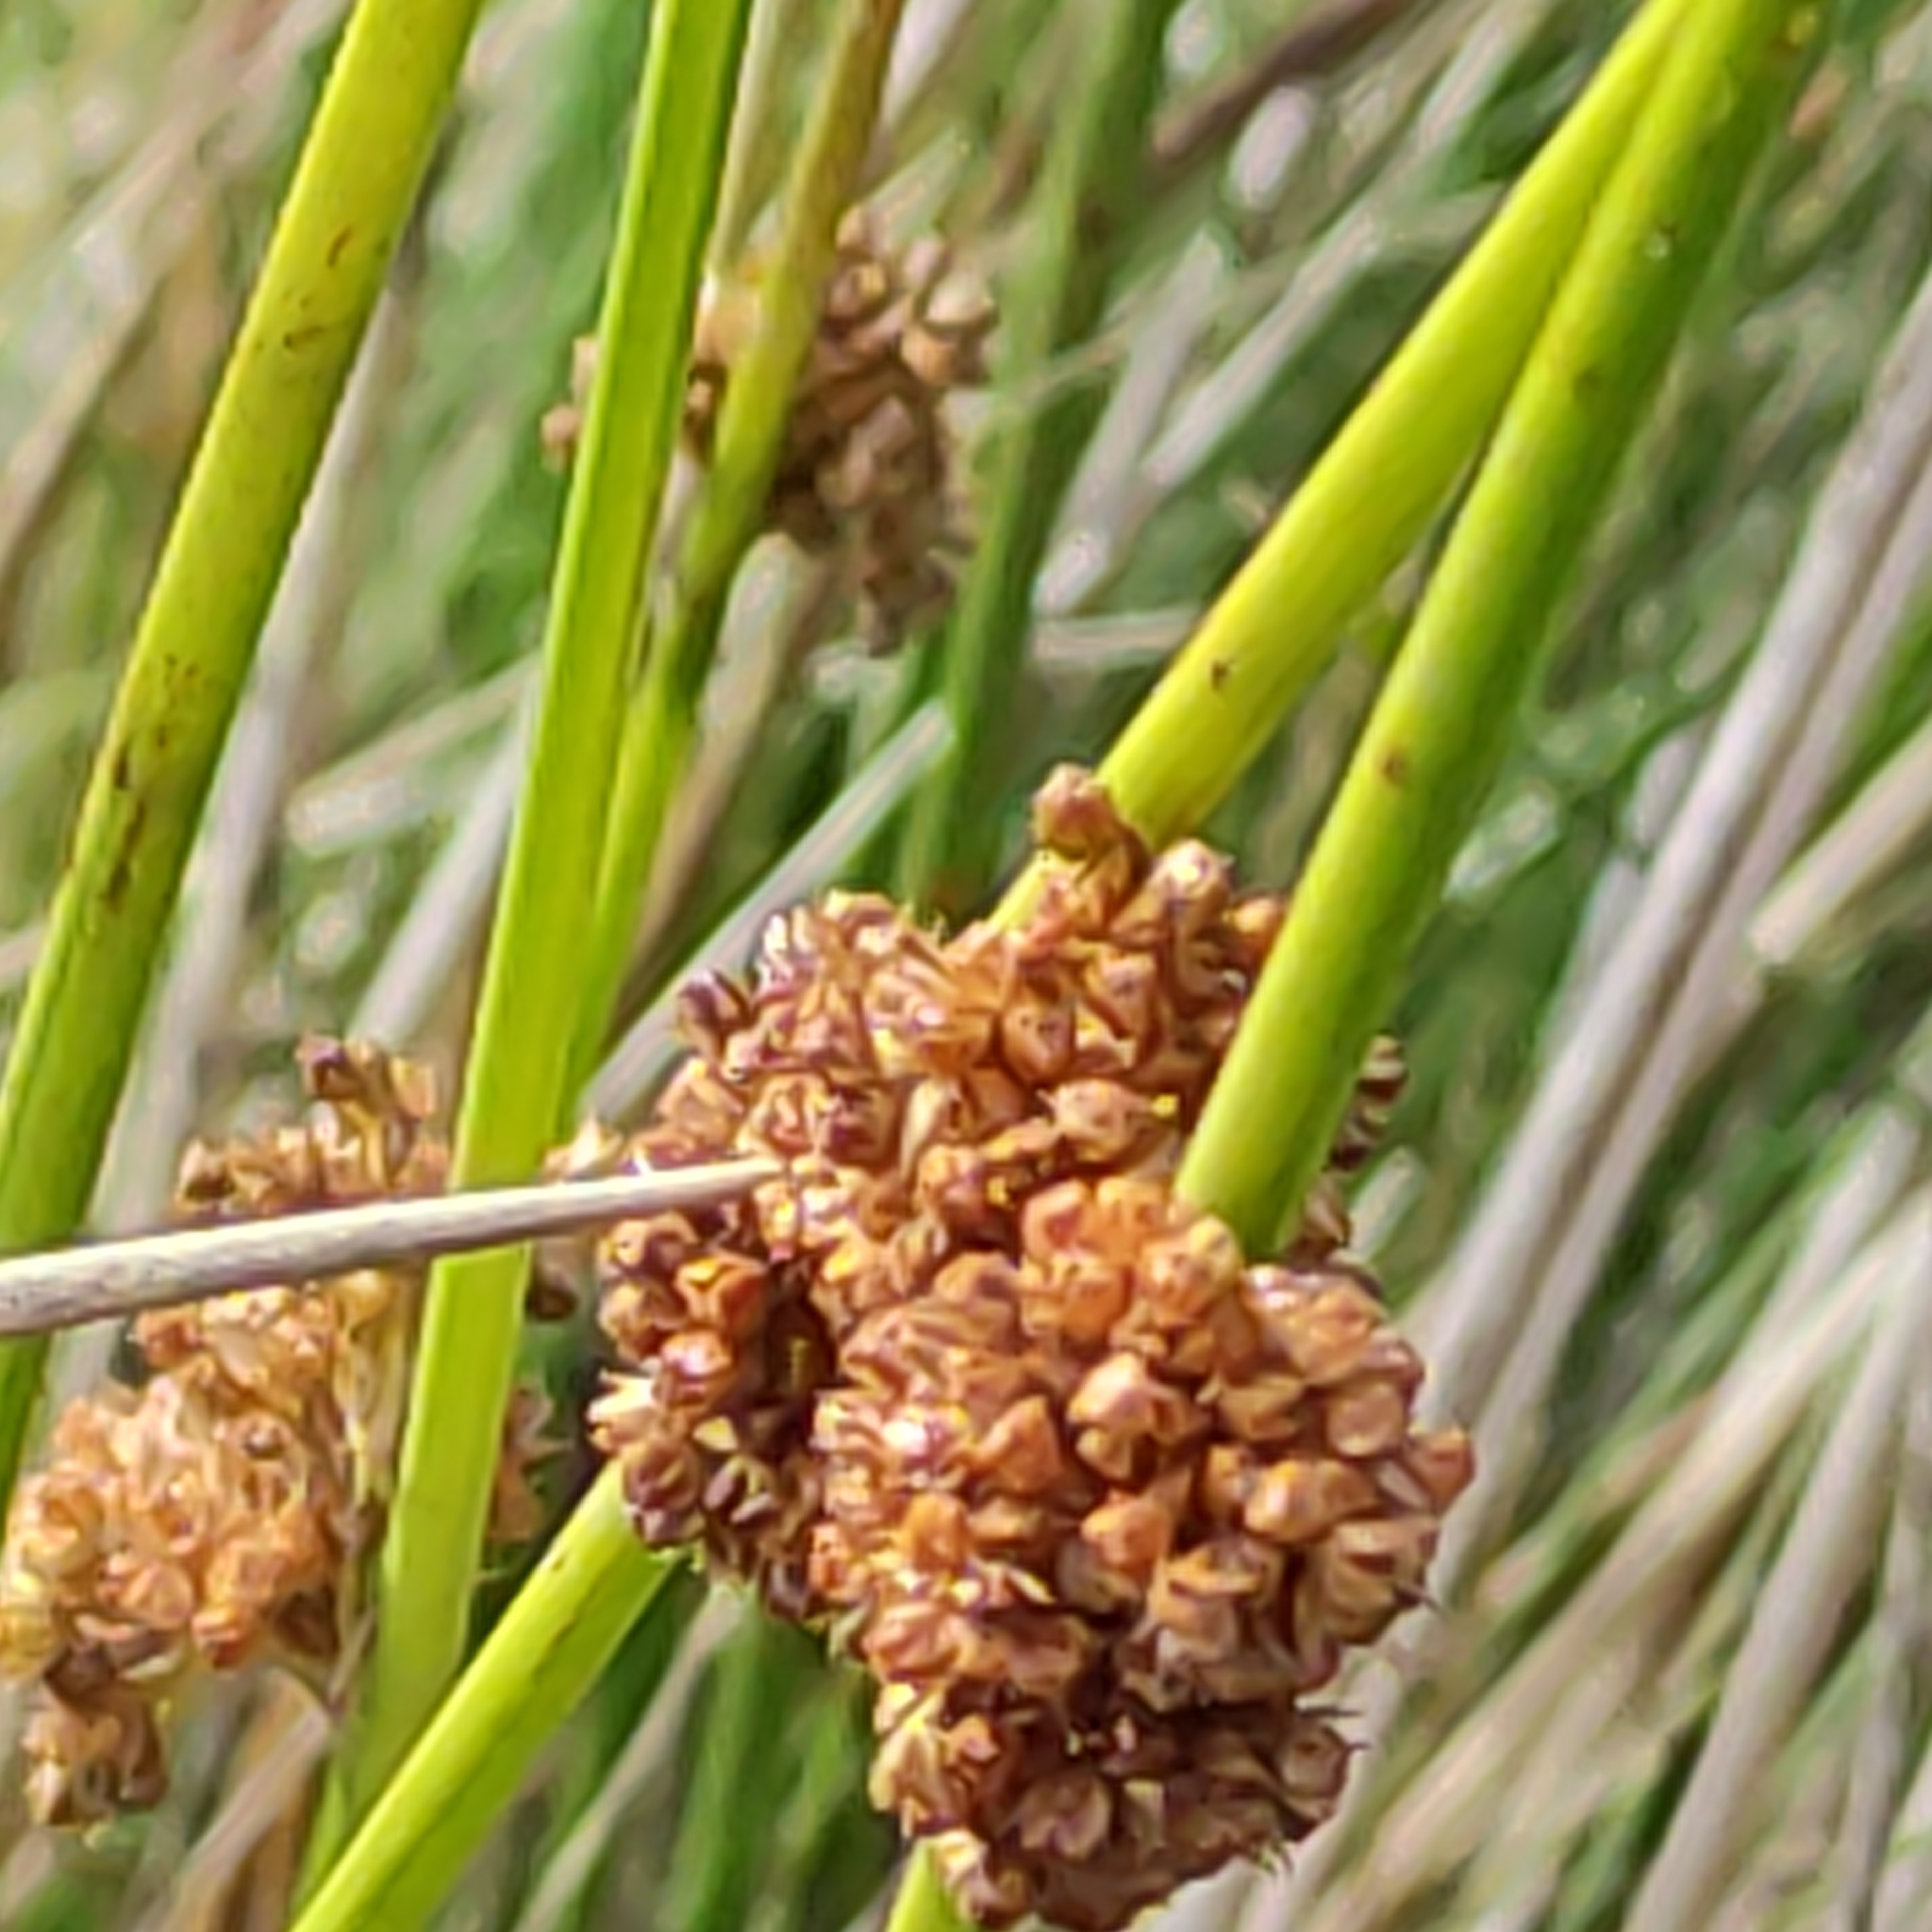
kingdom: Plantae
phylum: Tracheophyta
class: Liliopsida
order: Poales
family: Cyperaceae
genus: Ficinia
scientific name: Ficinia nodosa
